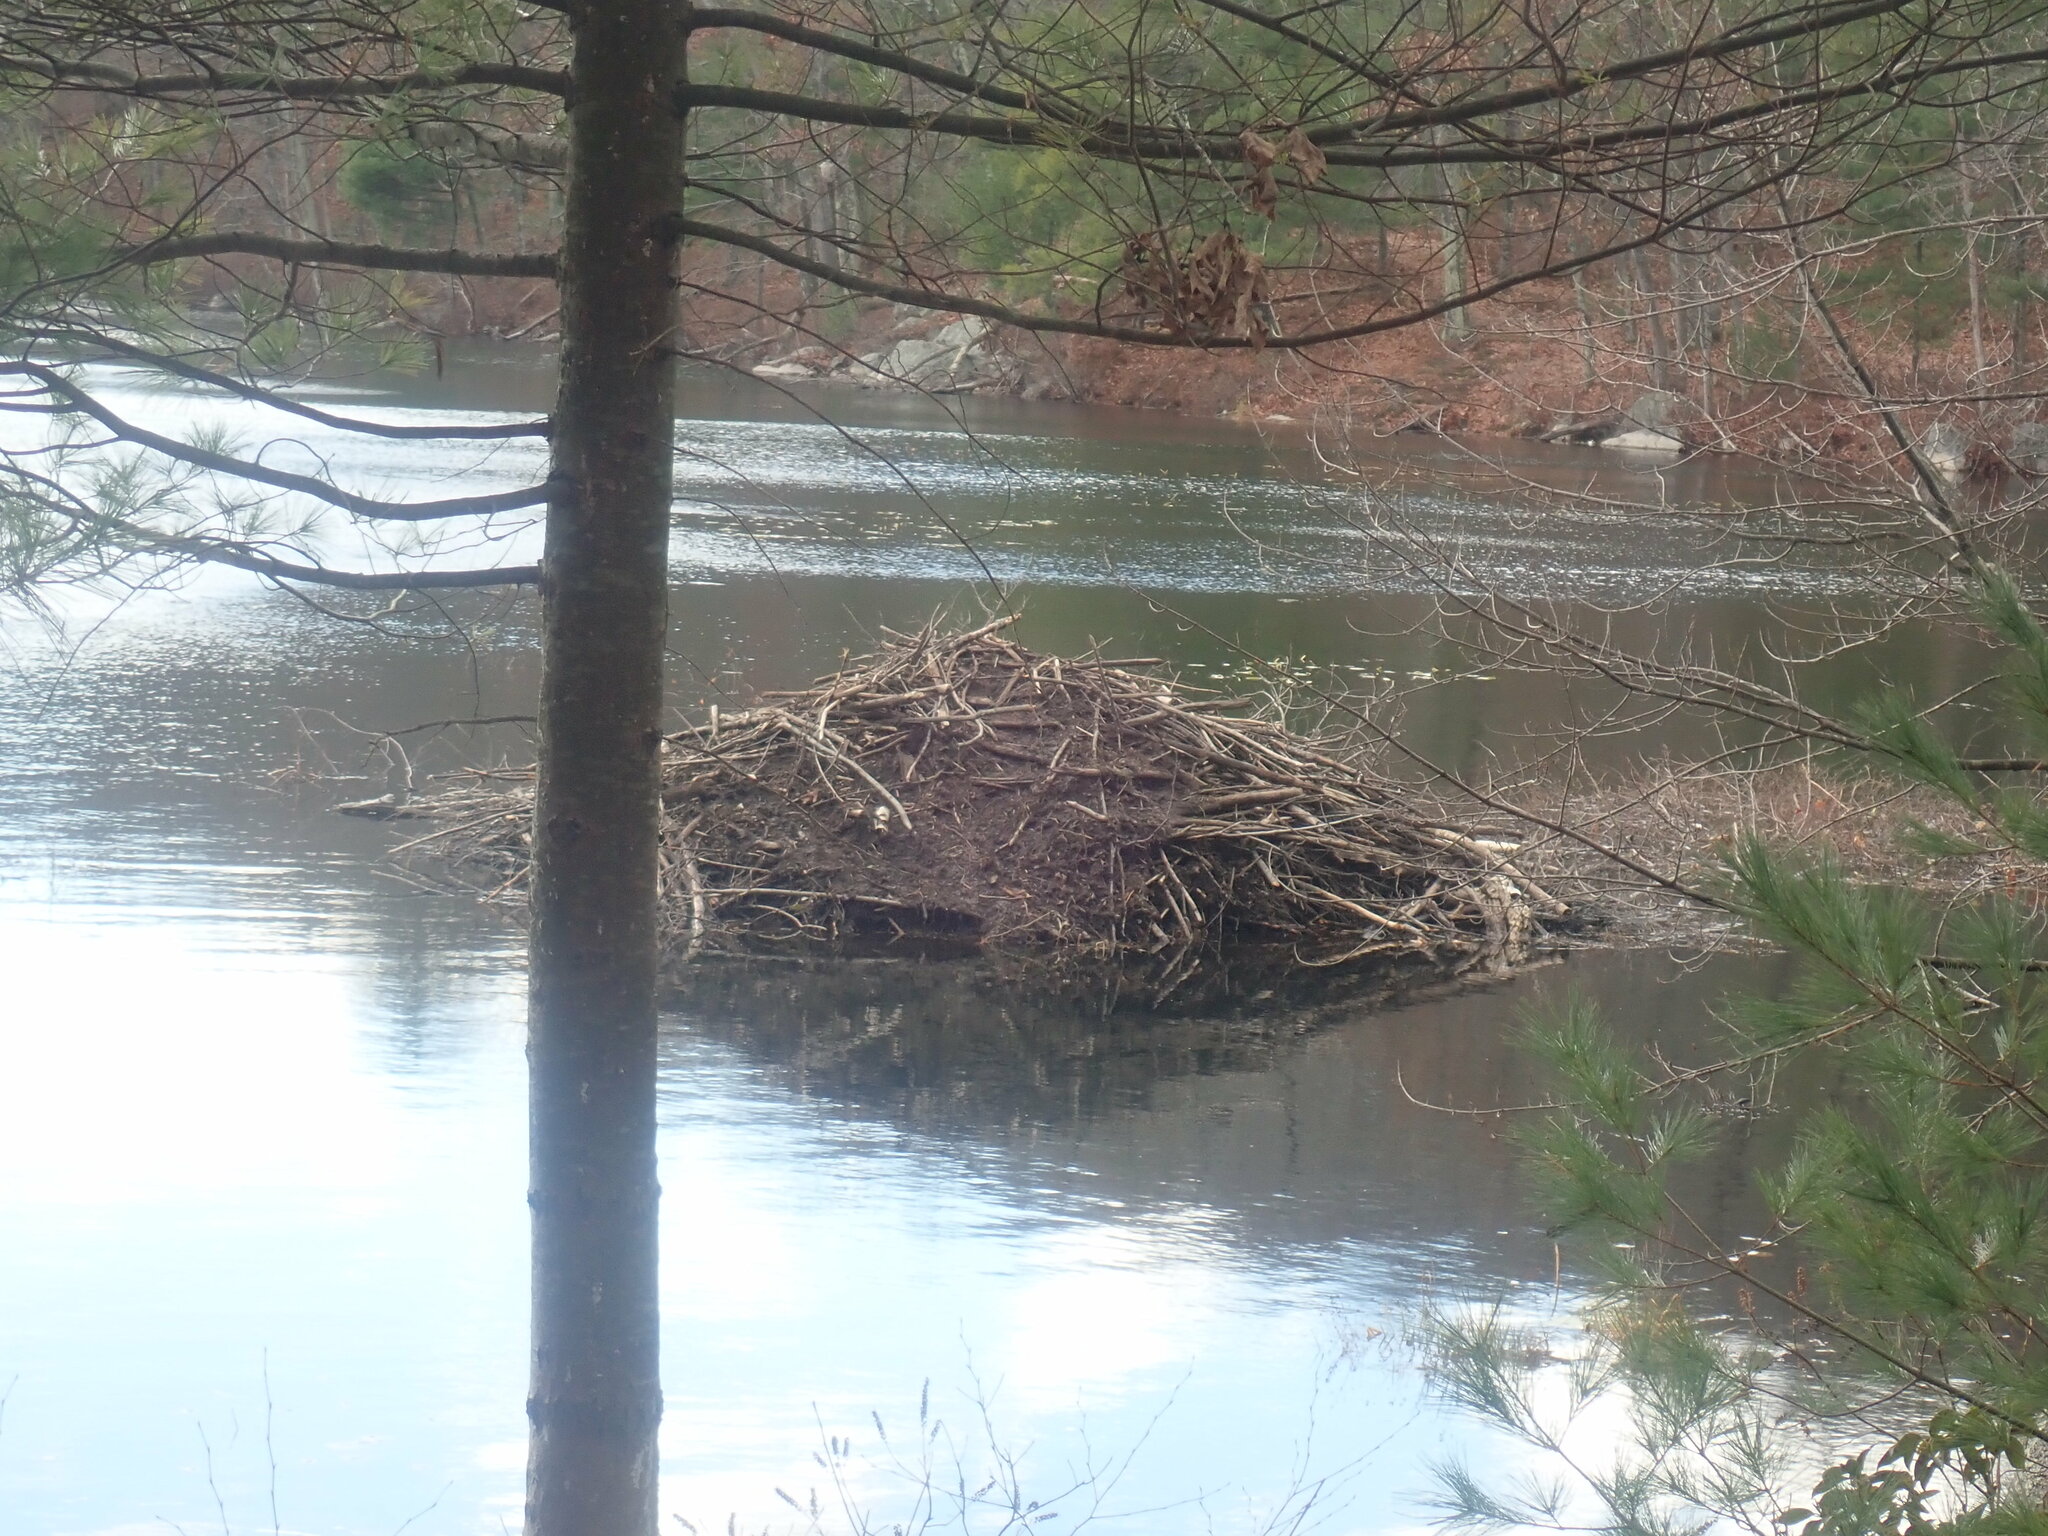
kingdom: Animalia
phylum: Chordata
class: Mammalia
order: Rodentia
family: Castoridae
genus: Castor
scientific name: Castor canadensis
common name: American beaver
